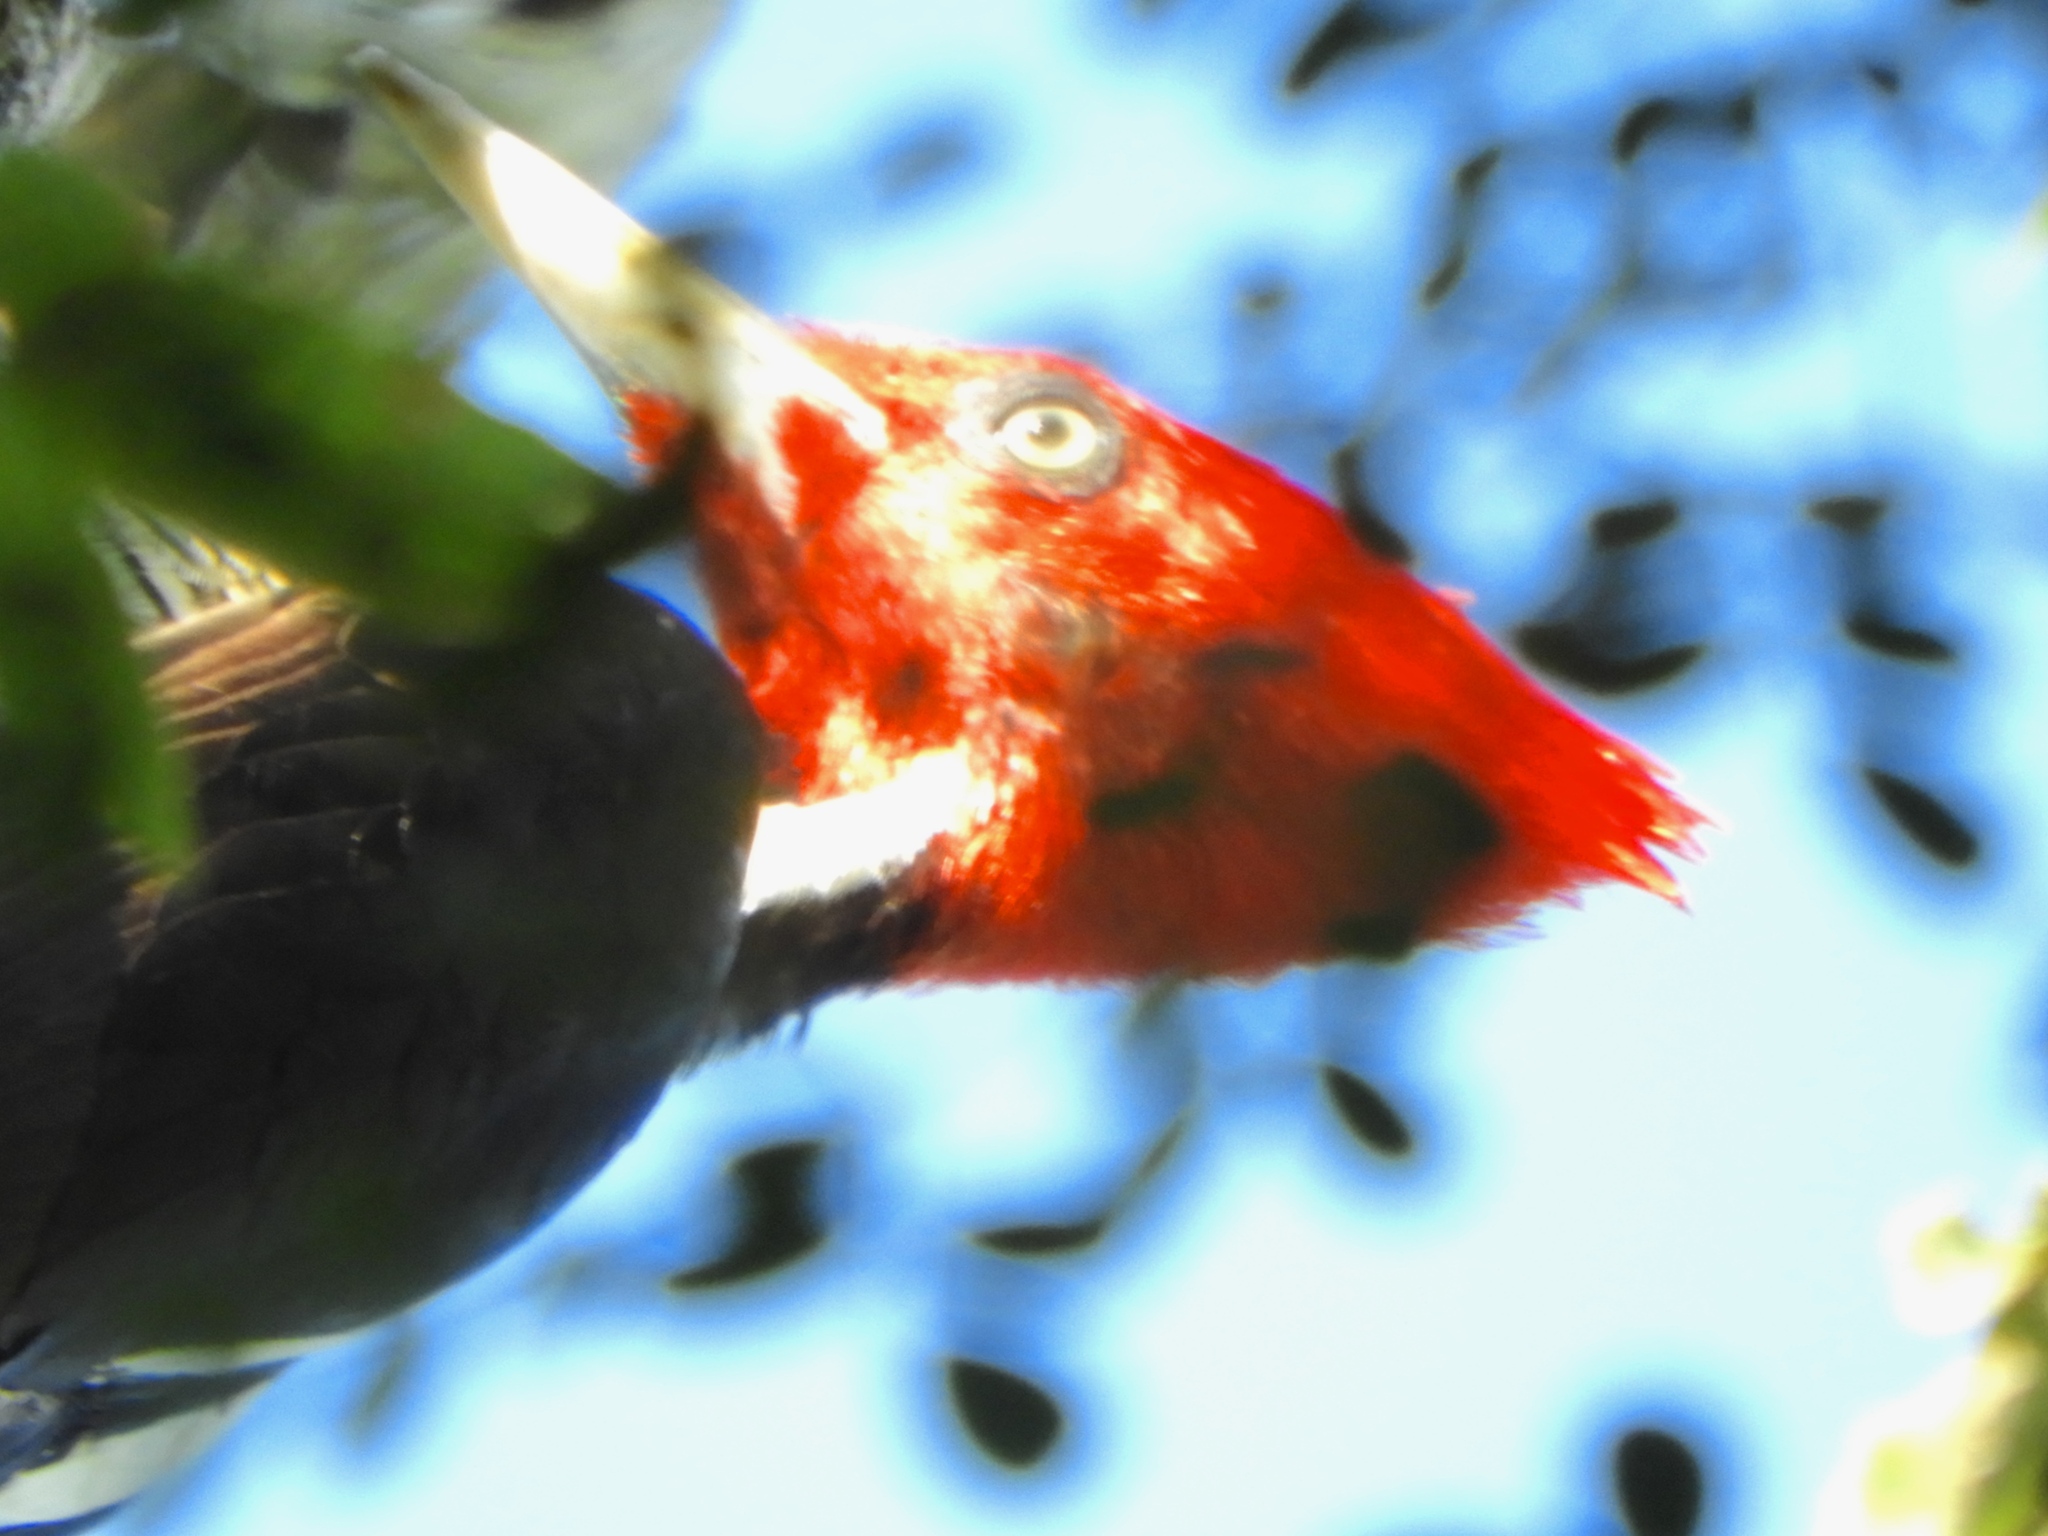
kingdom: Animalia
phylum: Chordata
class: Aves
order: Piciformes
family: Picidae
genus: Campephilus
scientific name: Campephilus guatemalensis
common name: Pale-billed woodpecker
